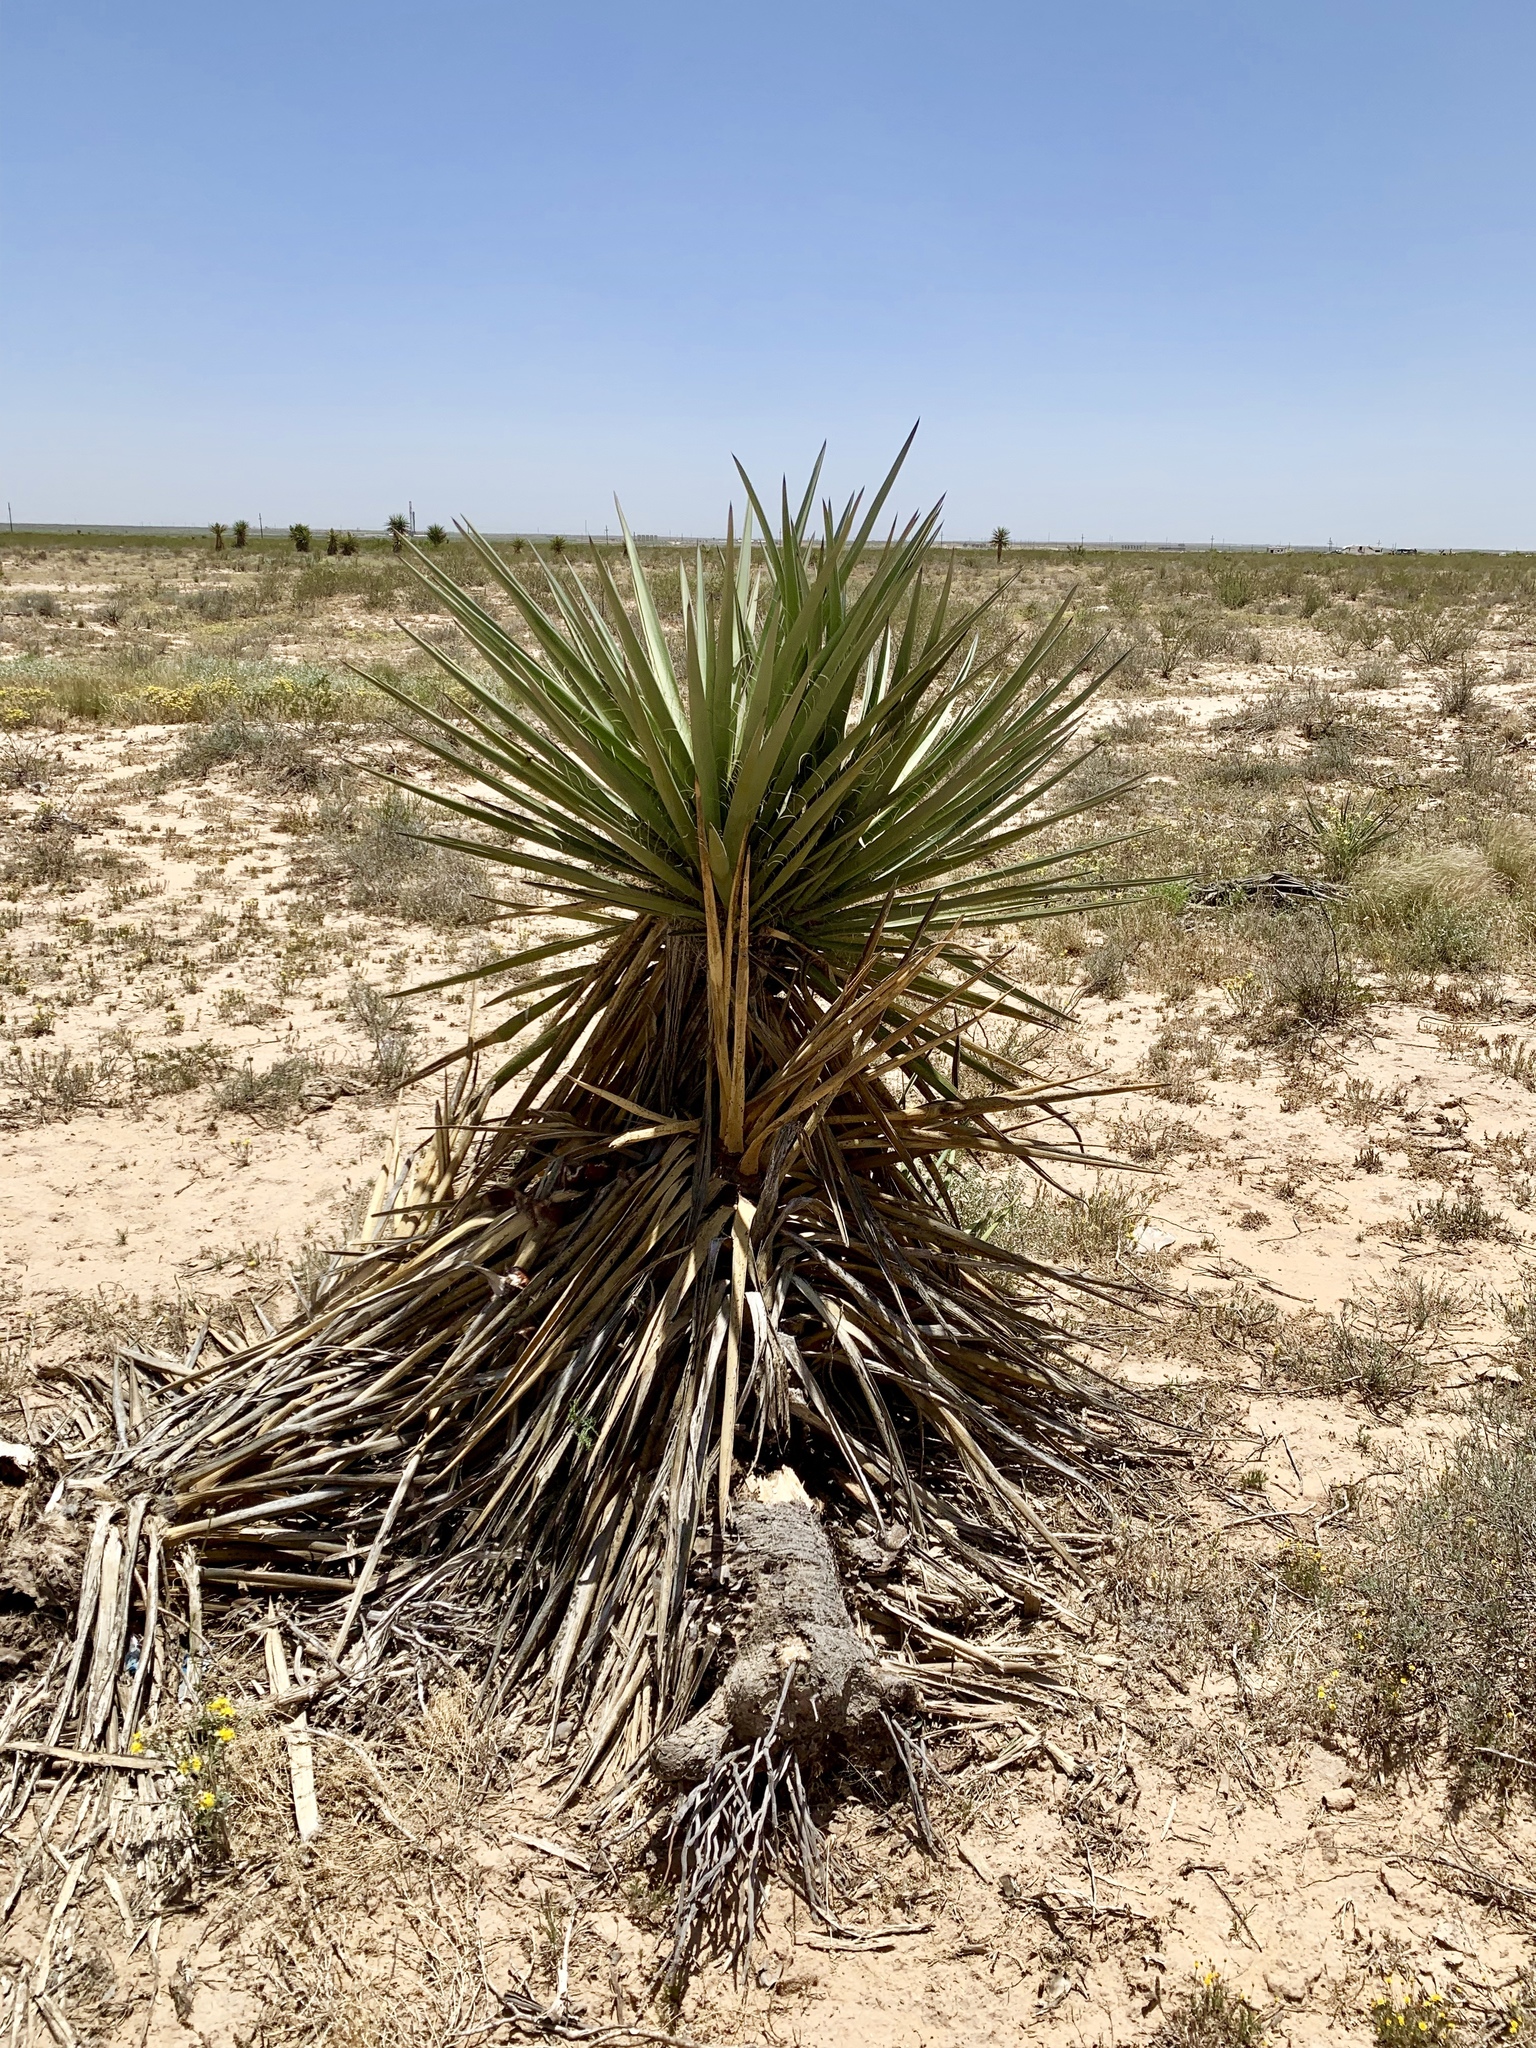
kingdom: Plantae
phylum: Tracheophyta
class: Liliopsida
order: Asparagales
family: Asparagaceae
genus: Yucca
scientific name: Yucca treculiana
